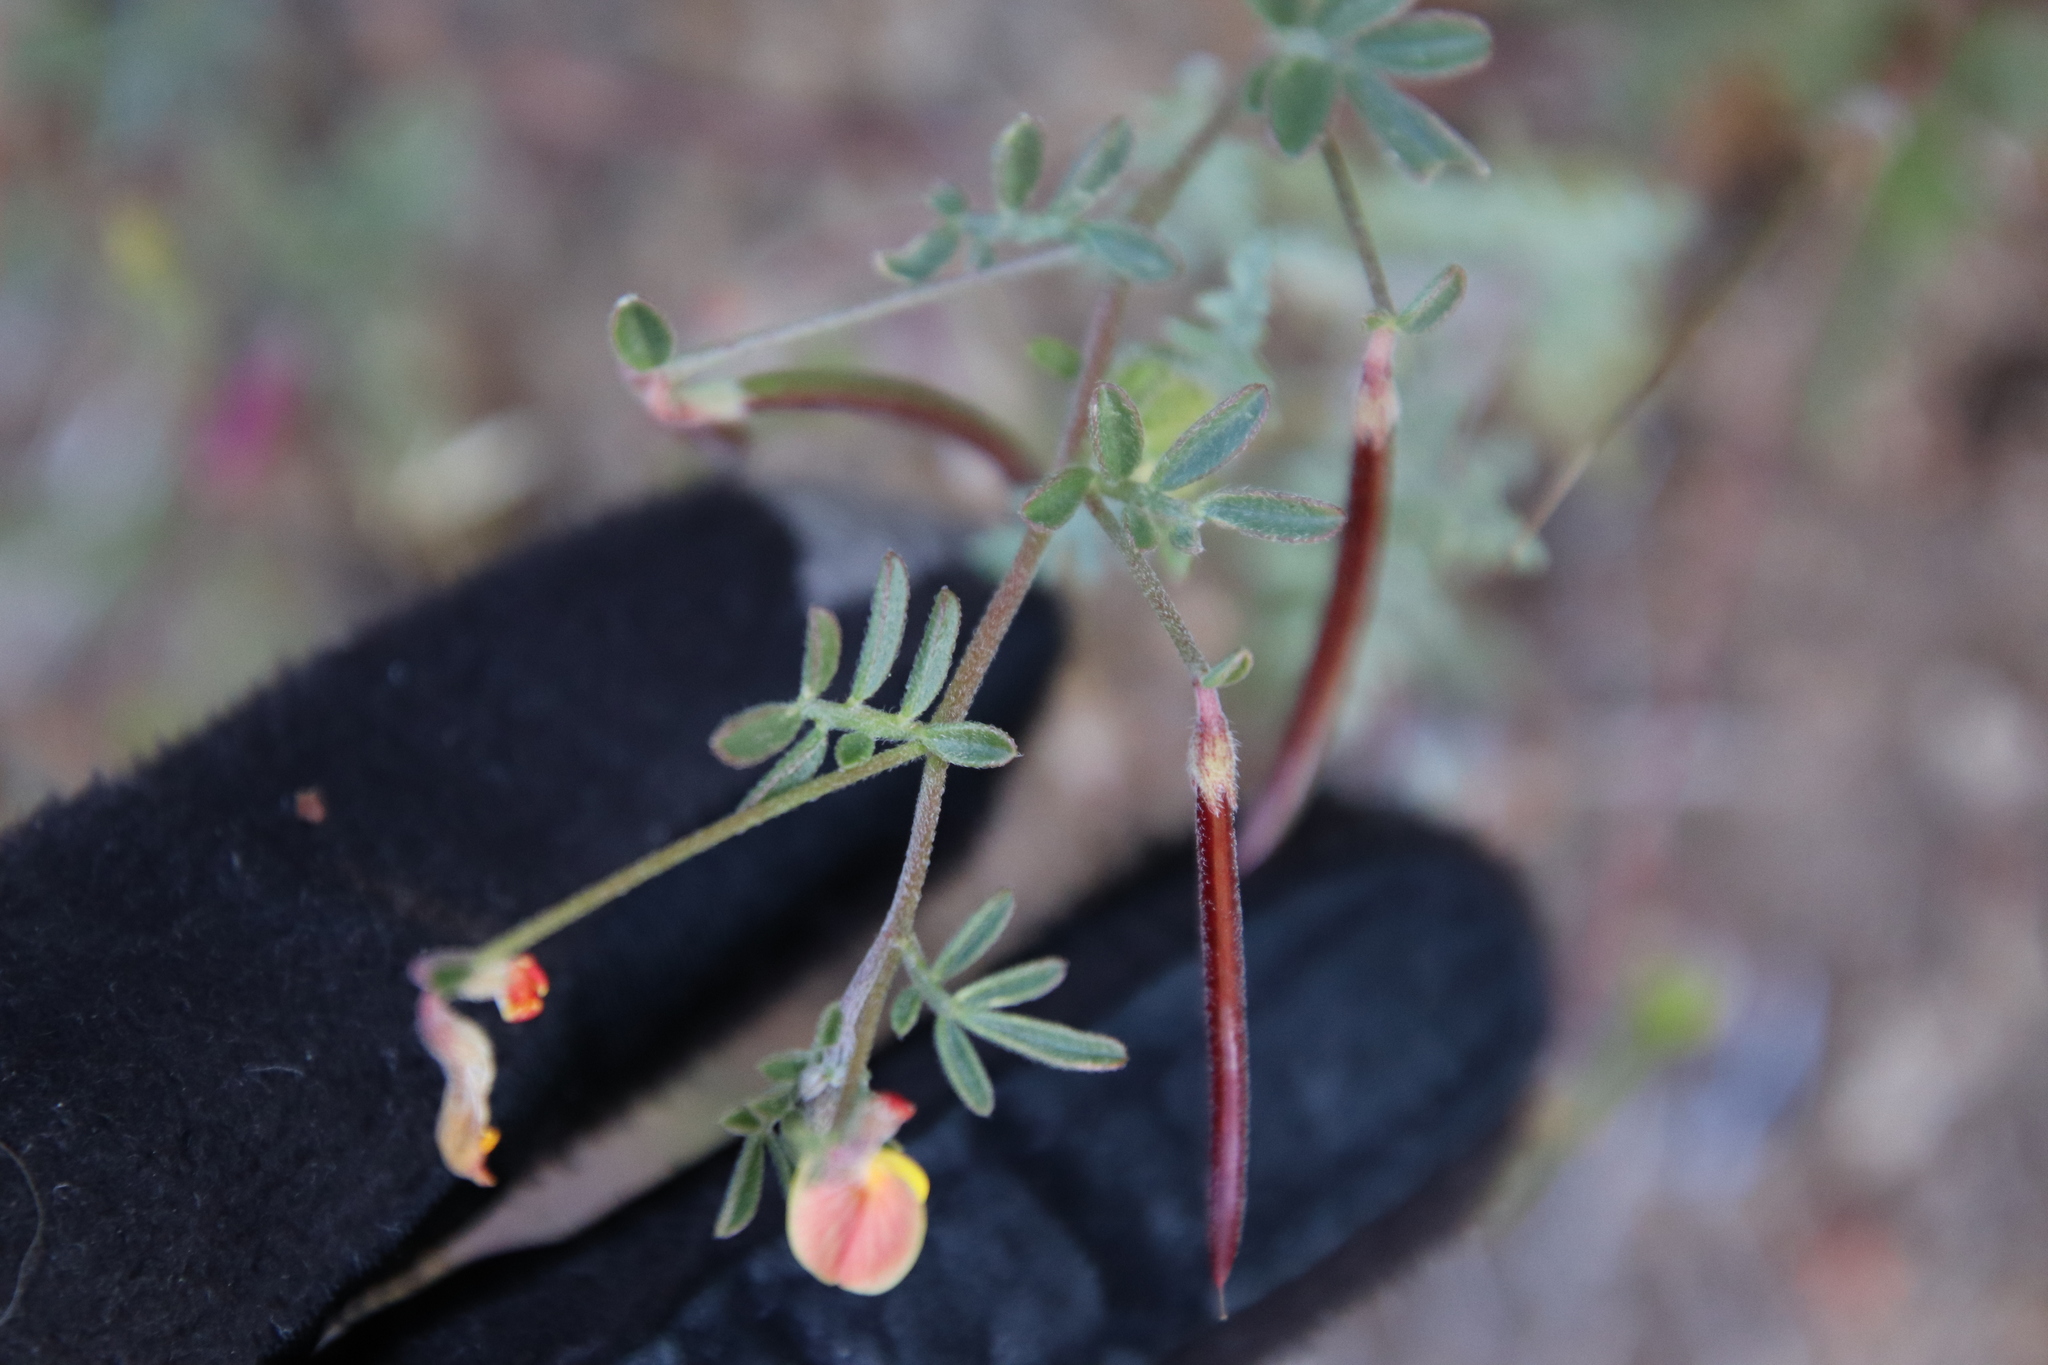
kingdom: Plantae
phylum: Tracheophyta
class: Magnoliopsida
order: Fabales
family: Fabaceae
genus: Acmispon
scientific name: Acmispon strigosus
